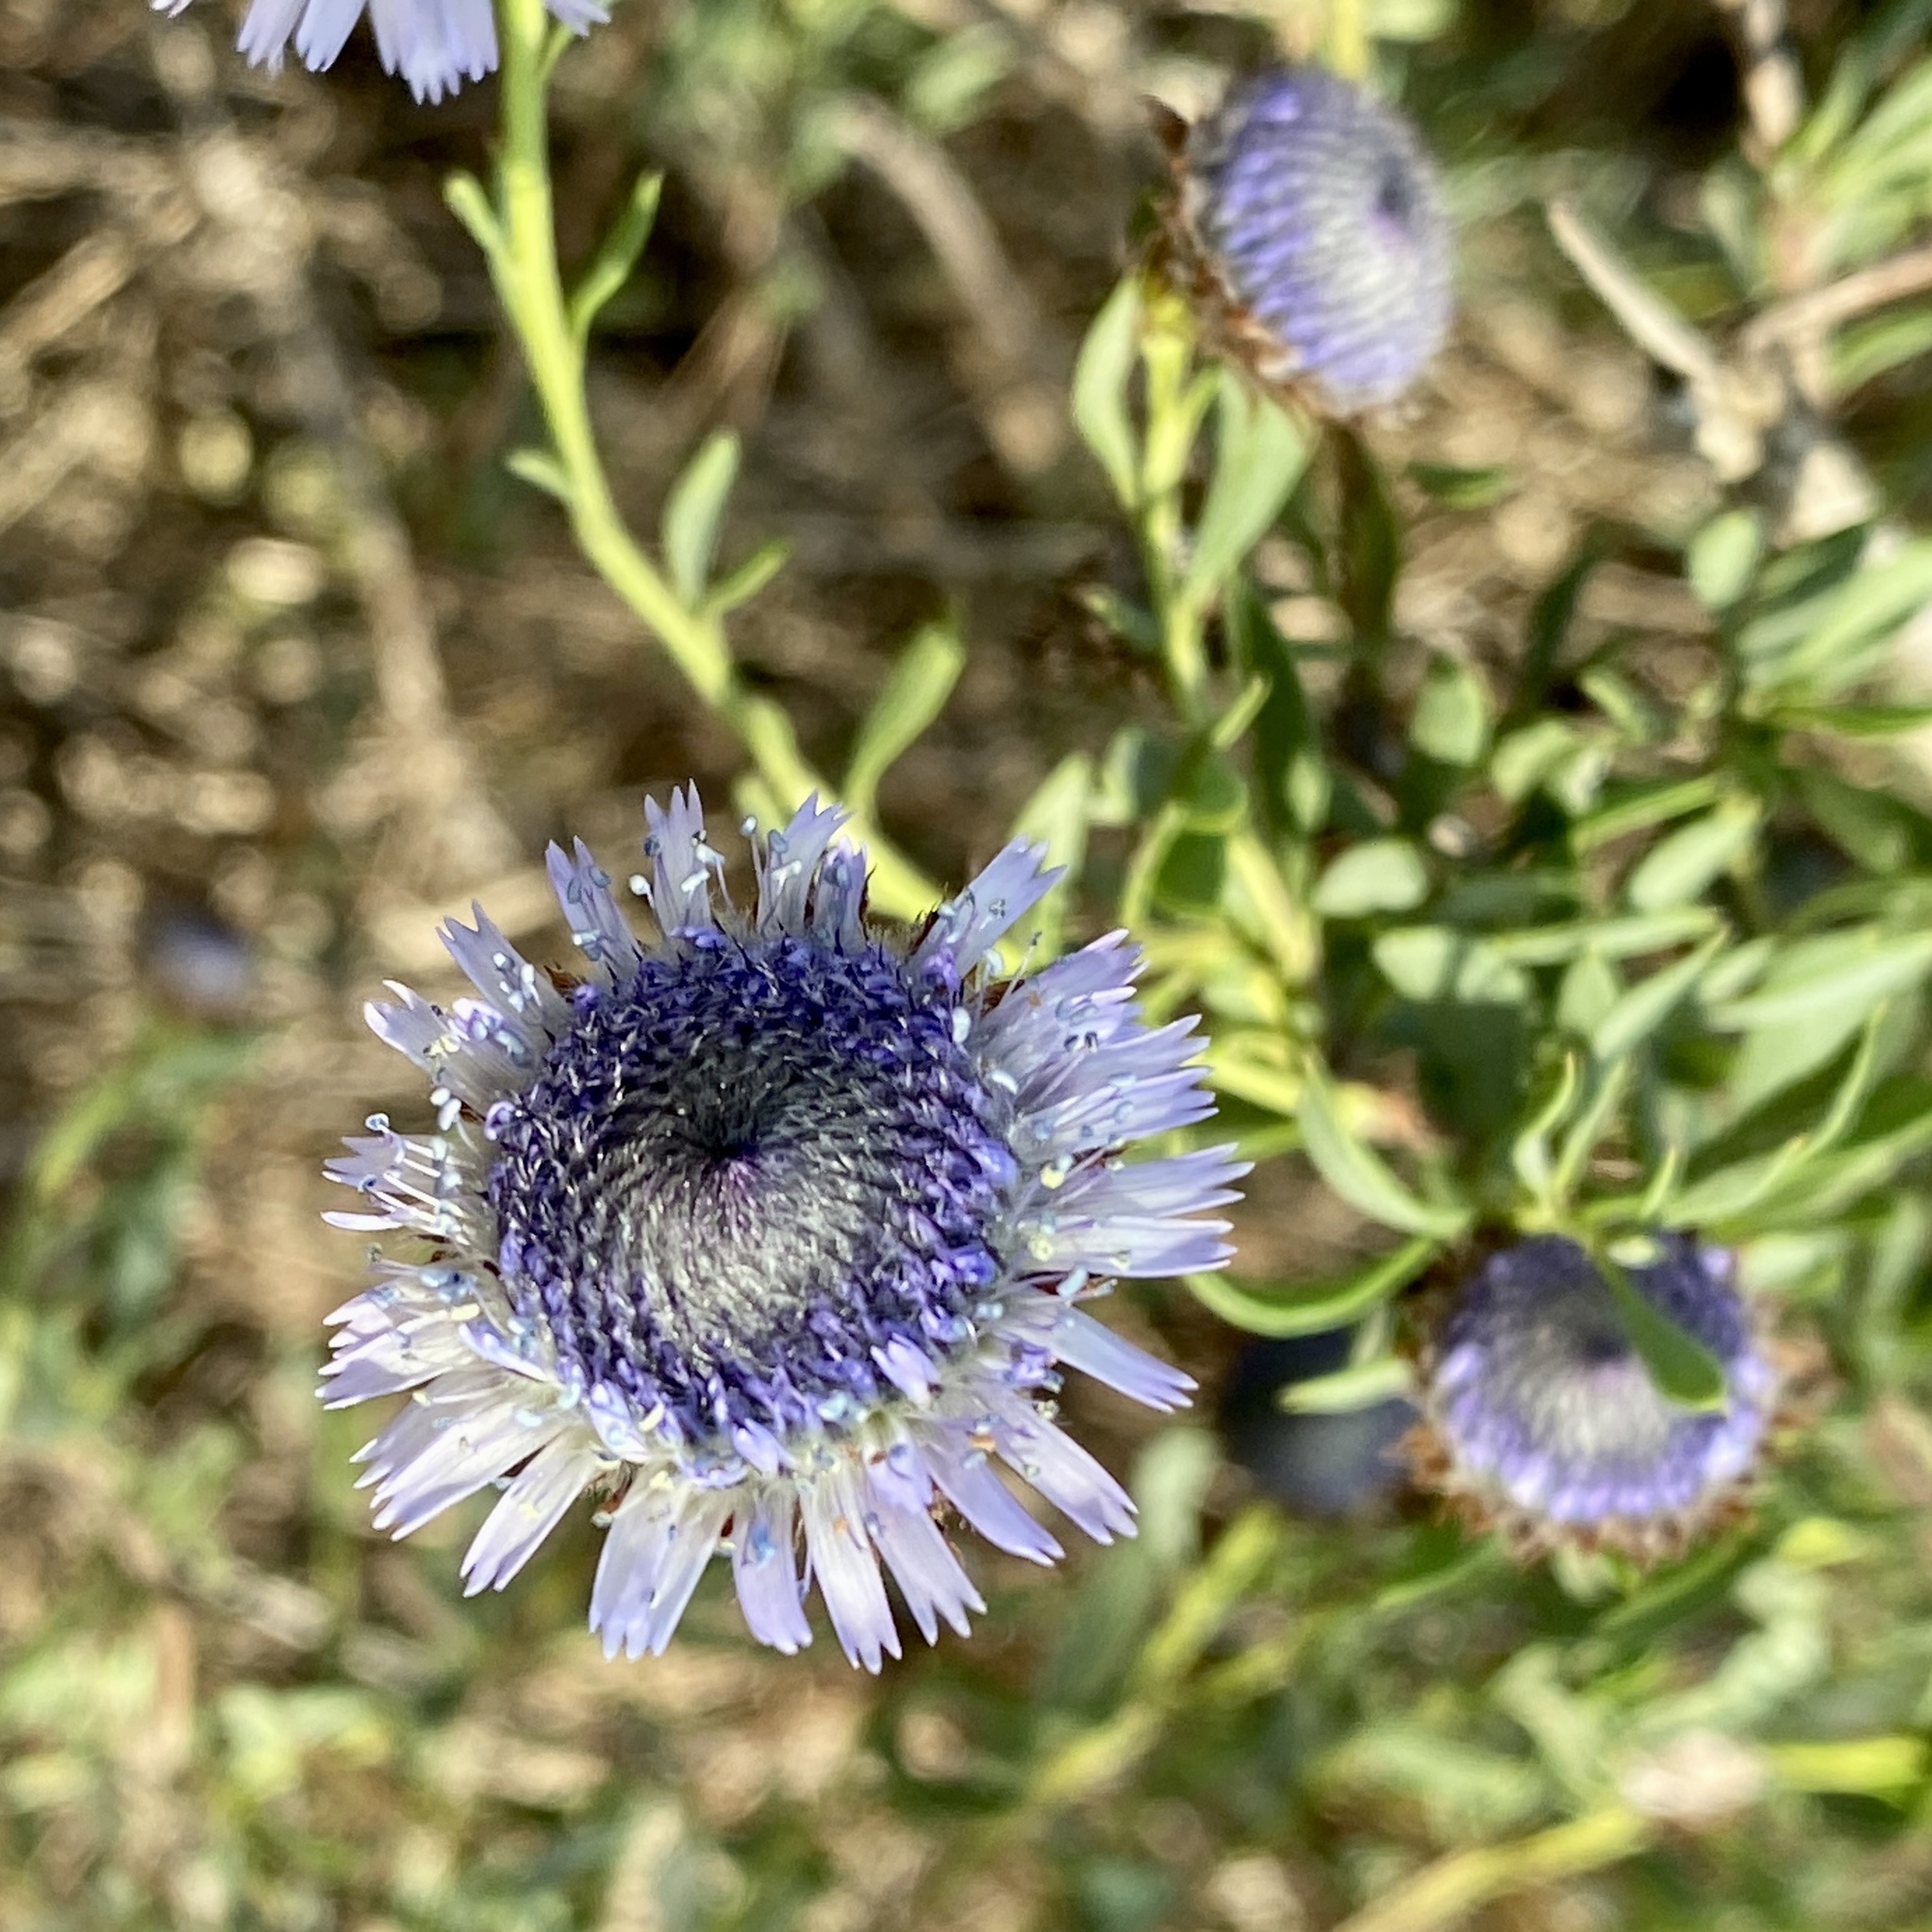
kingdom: Plantae
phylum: Tracheophyta
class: Magnoliopsida
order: Lamiales
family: Plantaginaceae
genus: Globularia
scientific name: Globularia alypum
